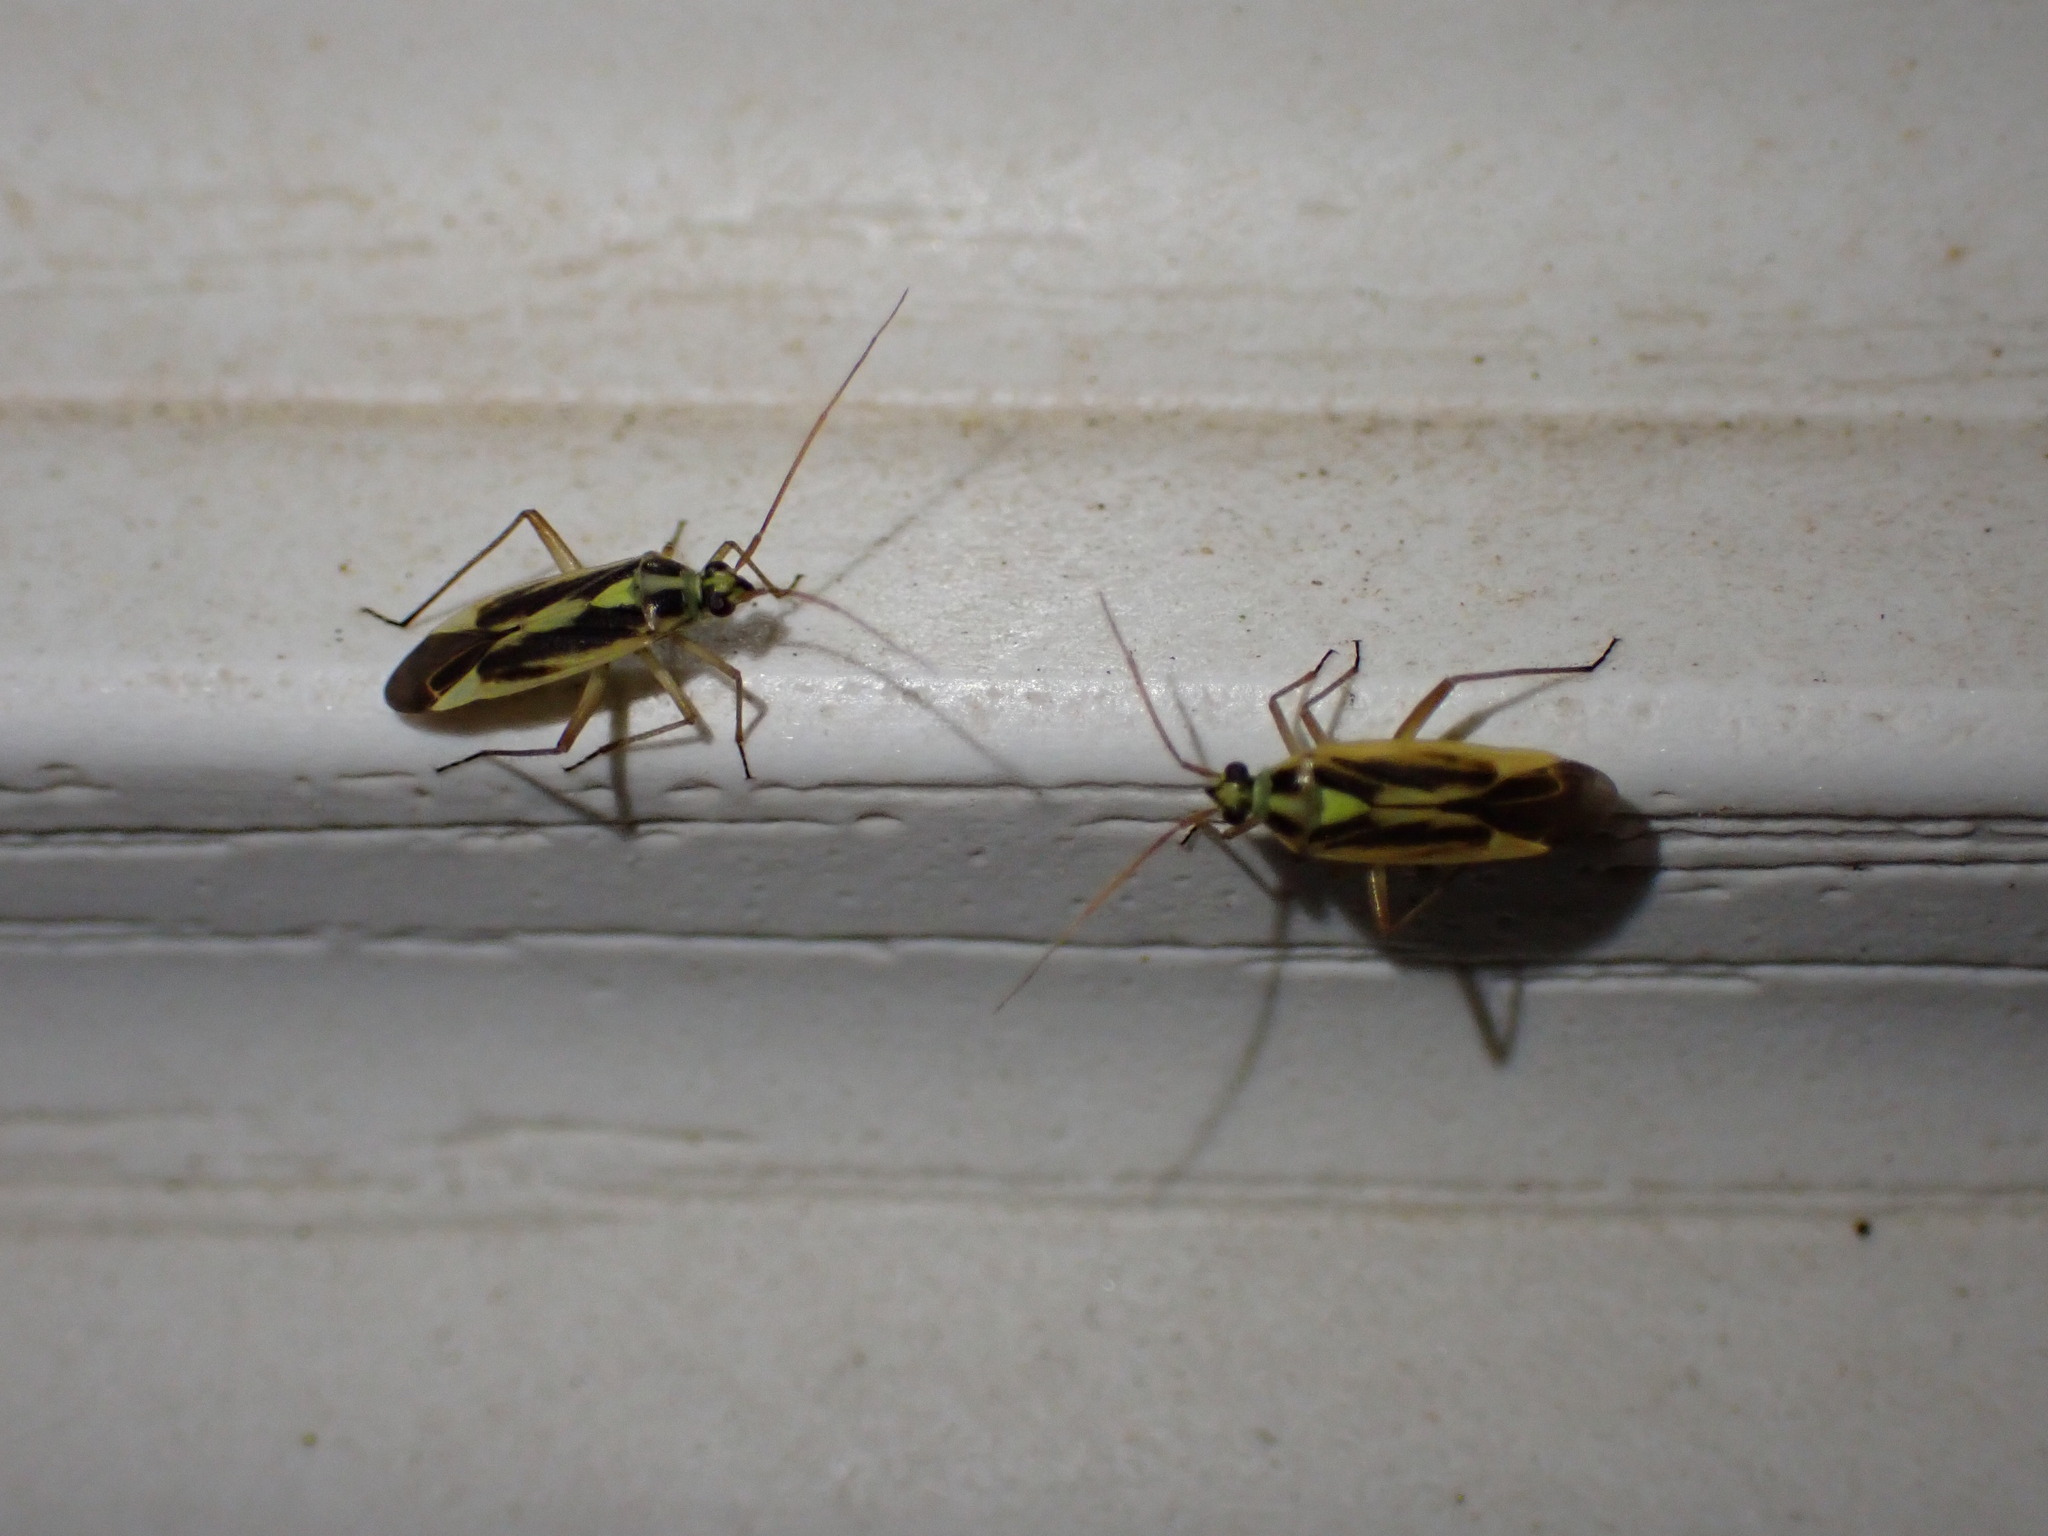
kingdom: Animalia
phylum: Arthropoda
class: Insecta
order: Hemiptera
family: Miridae
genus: Stenotus
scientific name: Stenotus binotatus
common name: Plant bug
